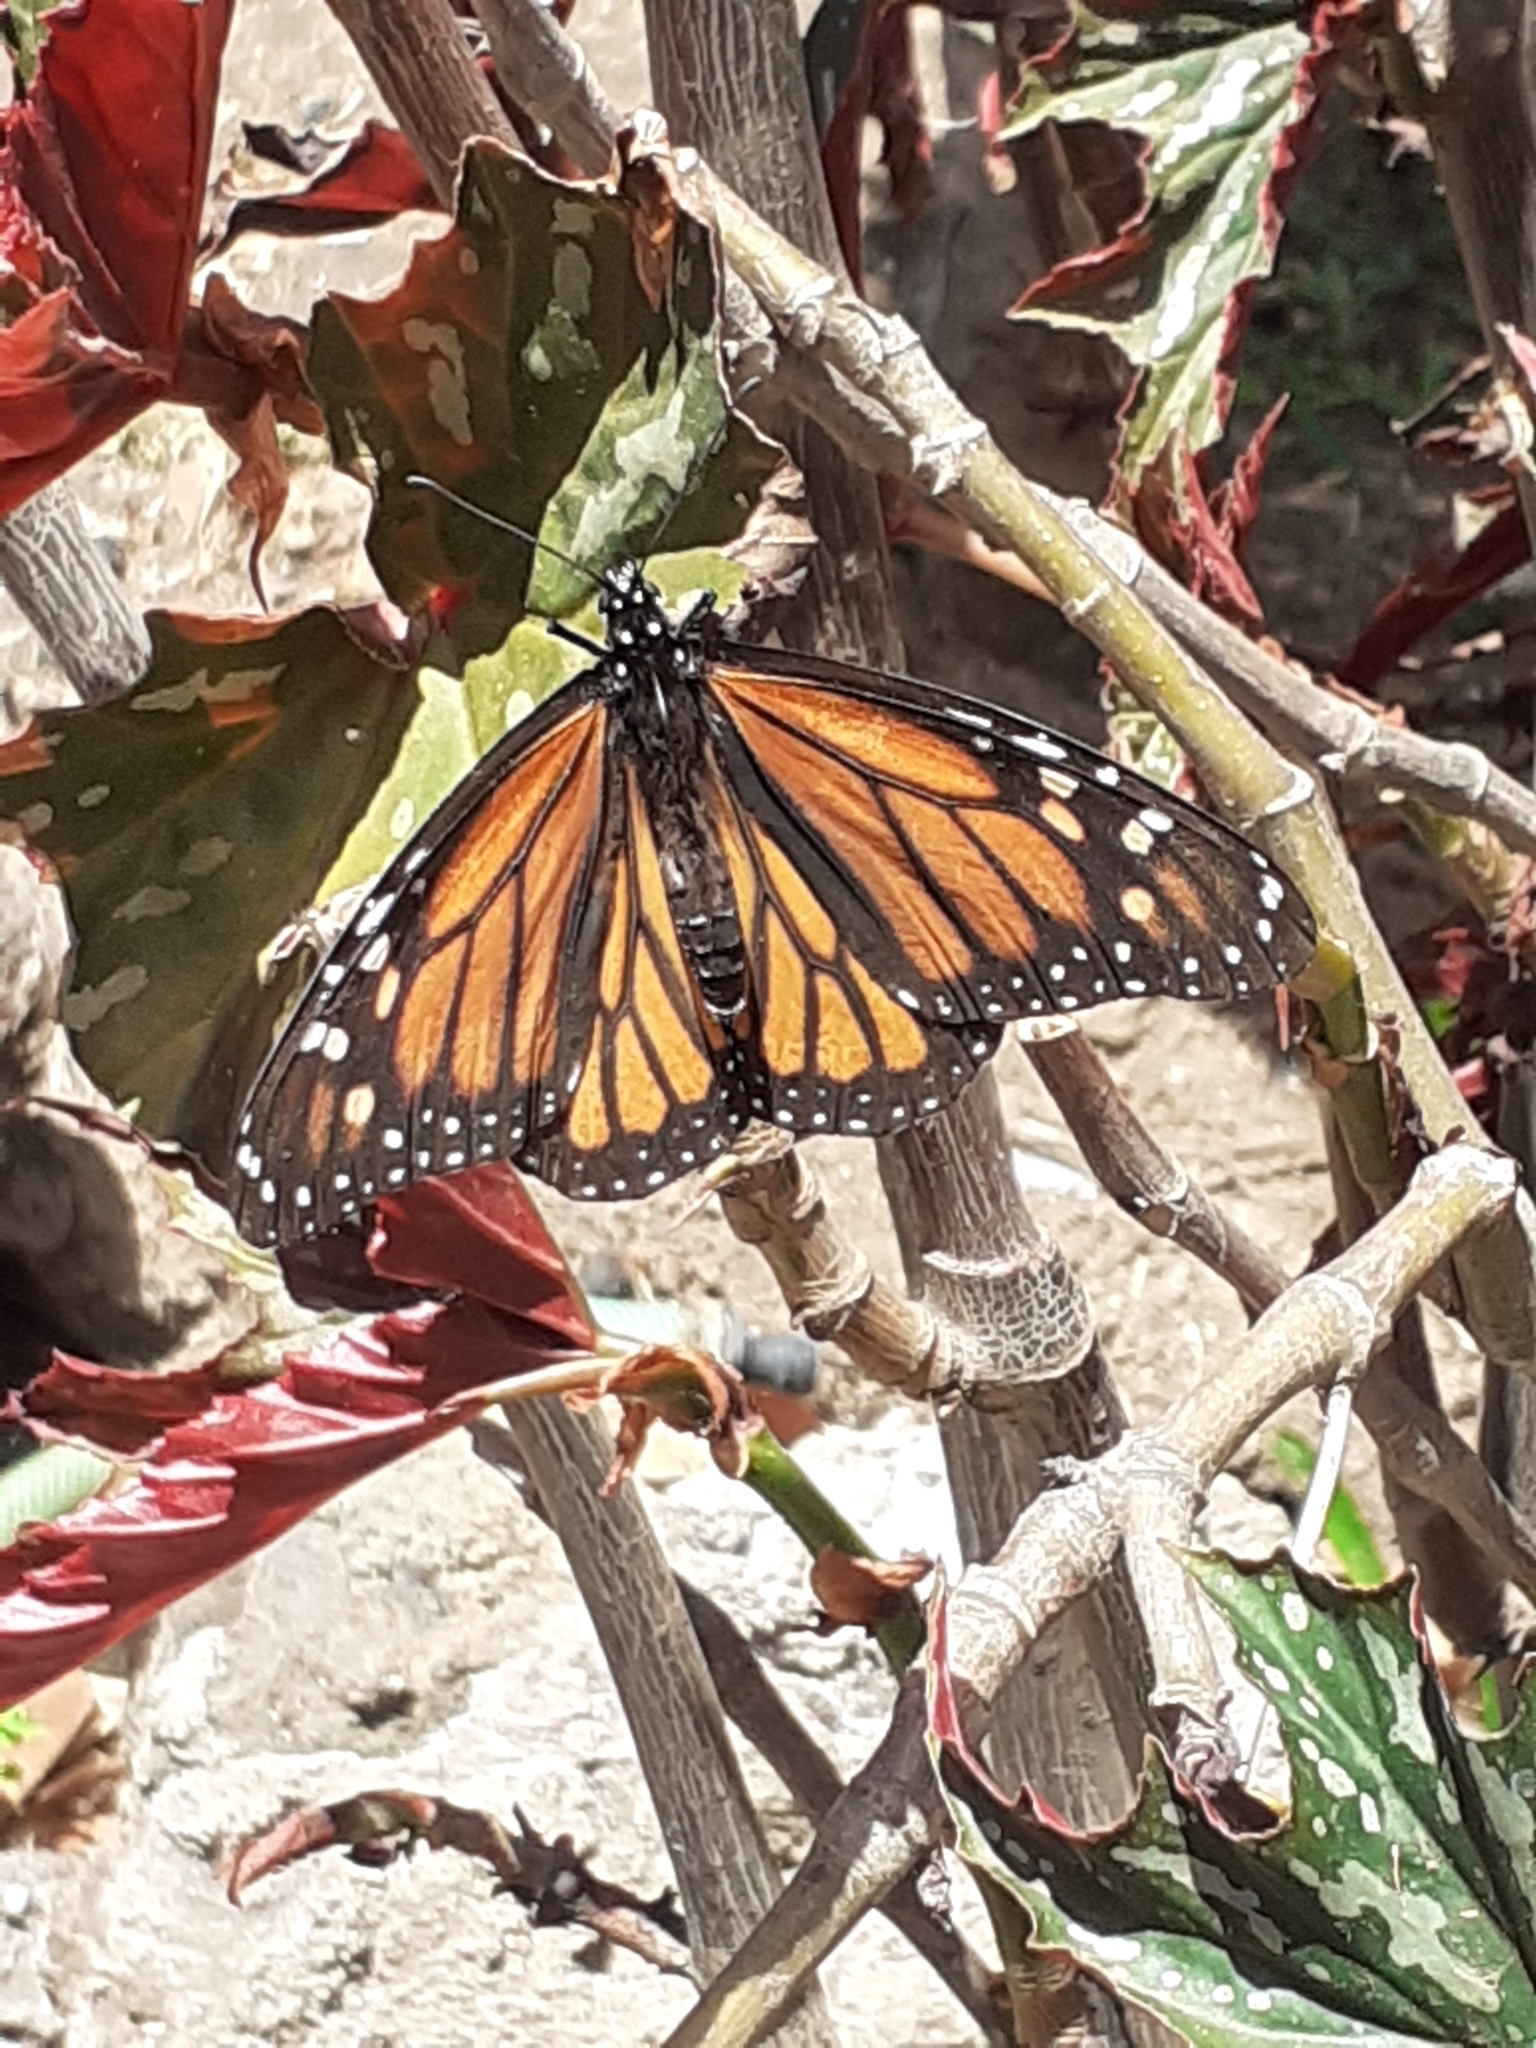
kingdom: Animalia
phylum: Arthropoda
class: Insecta
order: Lepidoptera
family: Nymphalidae
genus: Danaus
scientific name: Danaus plexippus
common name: Monarch
